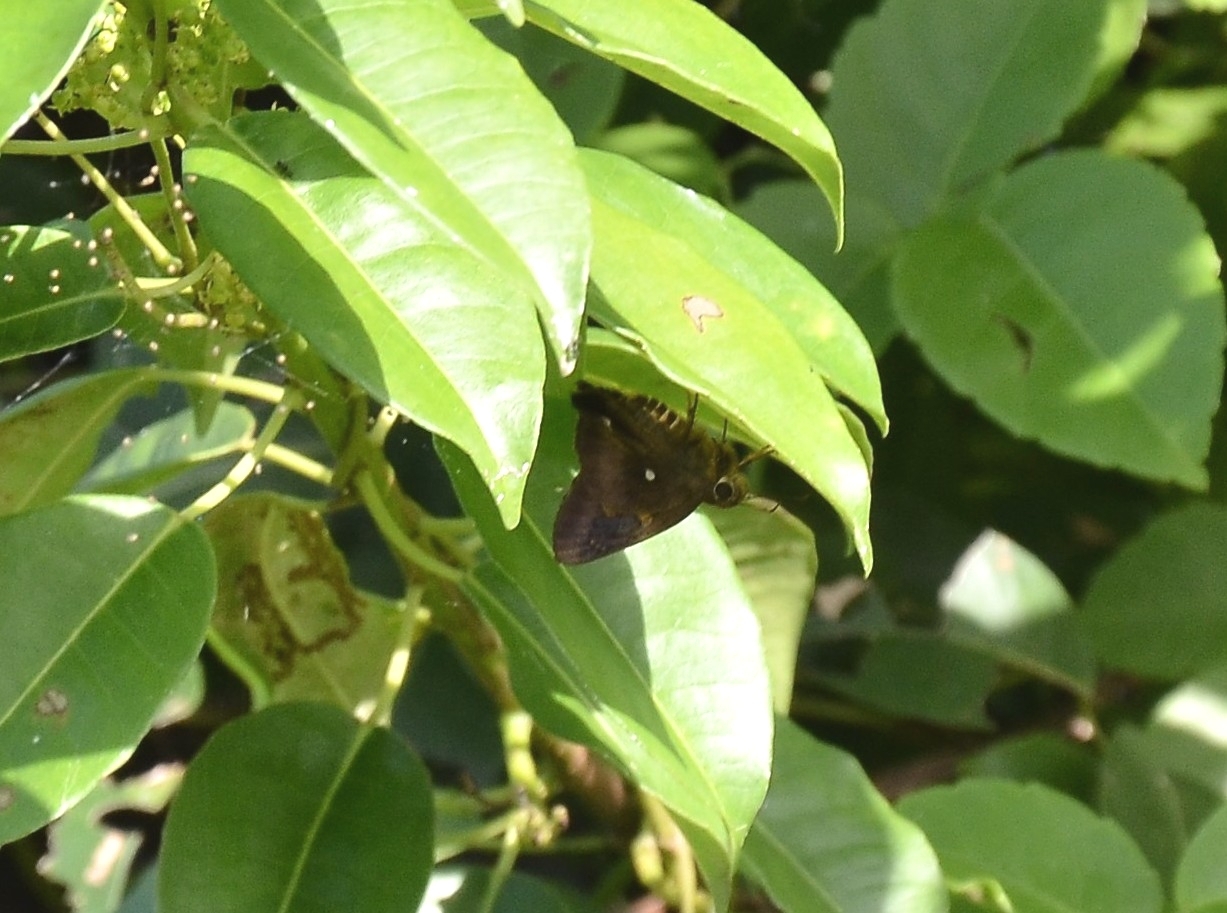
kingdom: Animalia
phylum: Arthropoda
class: Insecta
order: Lepidoptera
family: Hesperiidae
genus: Hasora
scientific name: Hasora badra
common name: Common awl
